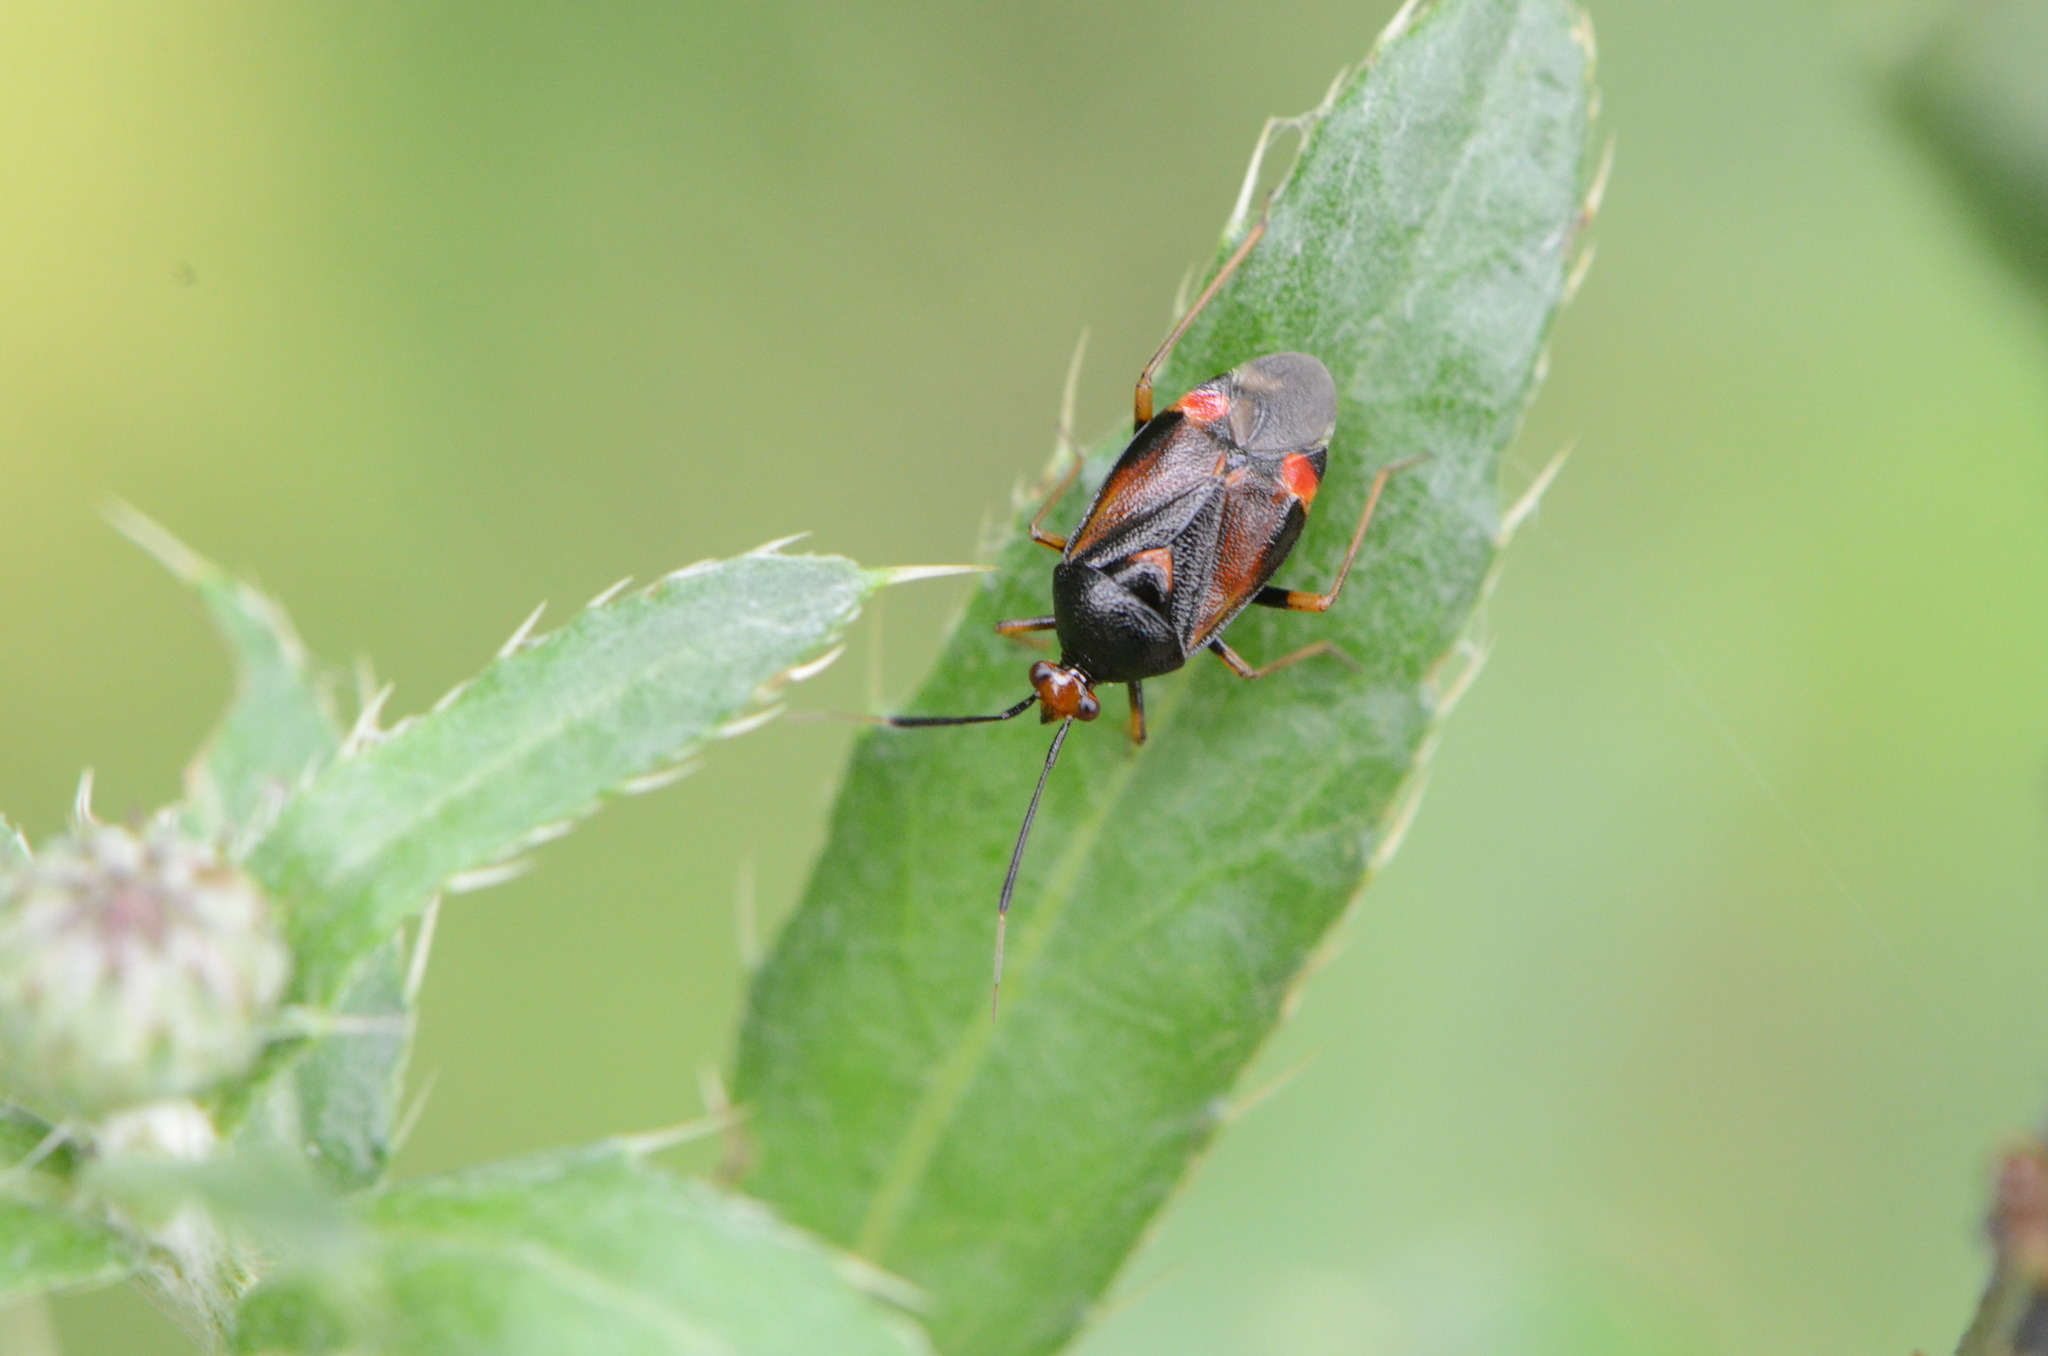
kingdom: Animalia
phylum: Arthropoda
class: Insecta
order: Hemiptera
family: Miridae
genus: Deraeocoris
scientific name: Deraeocoris ruber
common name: Plant bug
